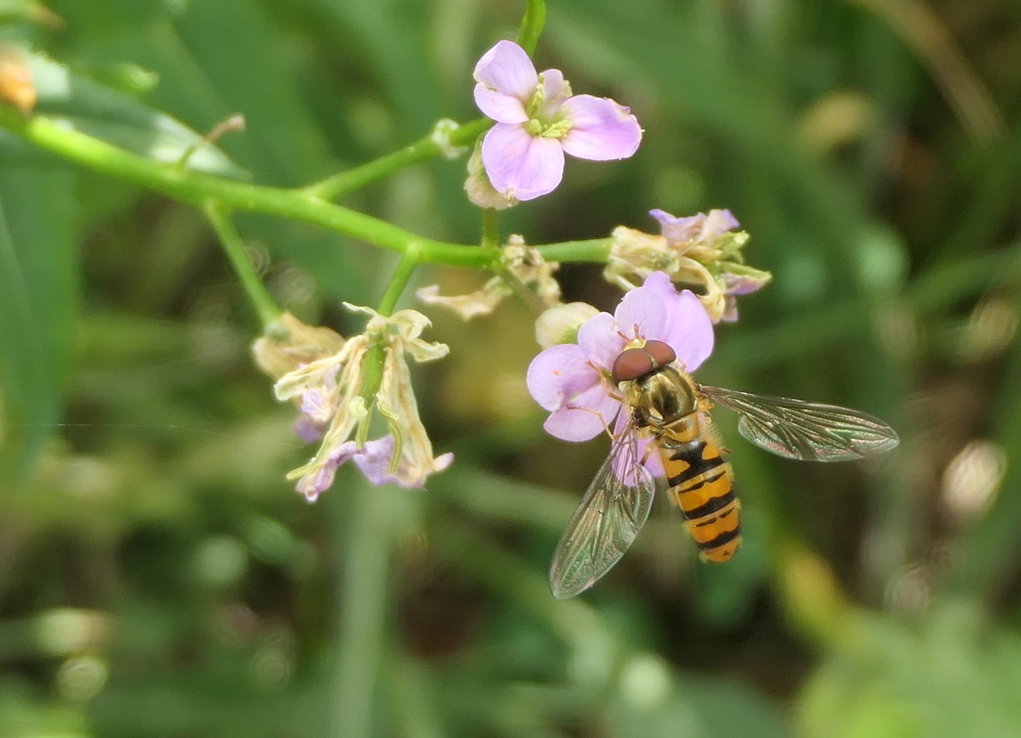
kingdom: Animalia
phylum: Arthropoda
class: Insecta
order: Diptera
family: Syrphidae
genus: Episyrphus
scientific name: Episyrphus balteatus
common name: Marmalade hoverfly
